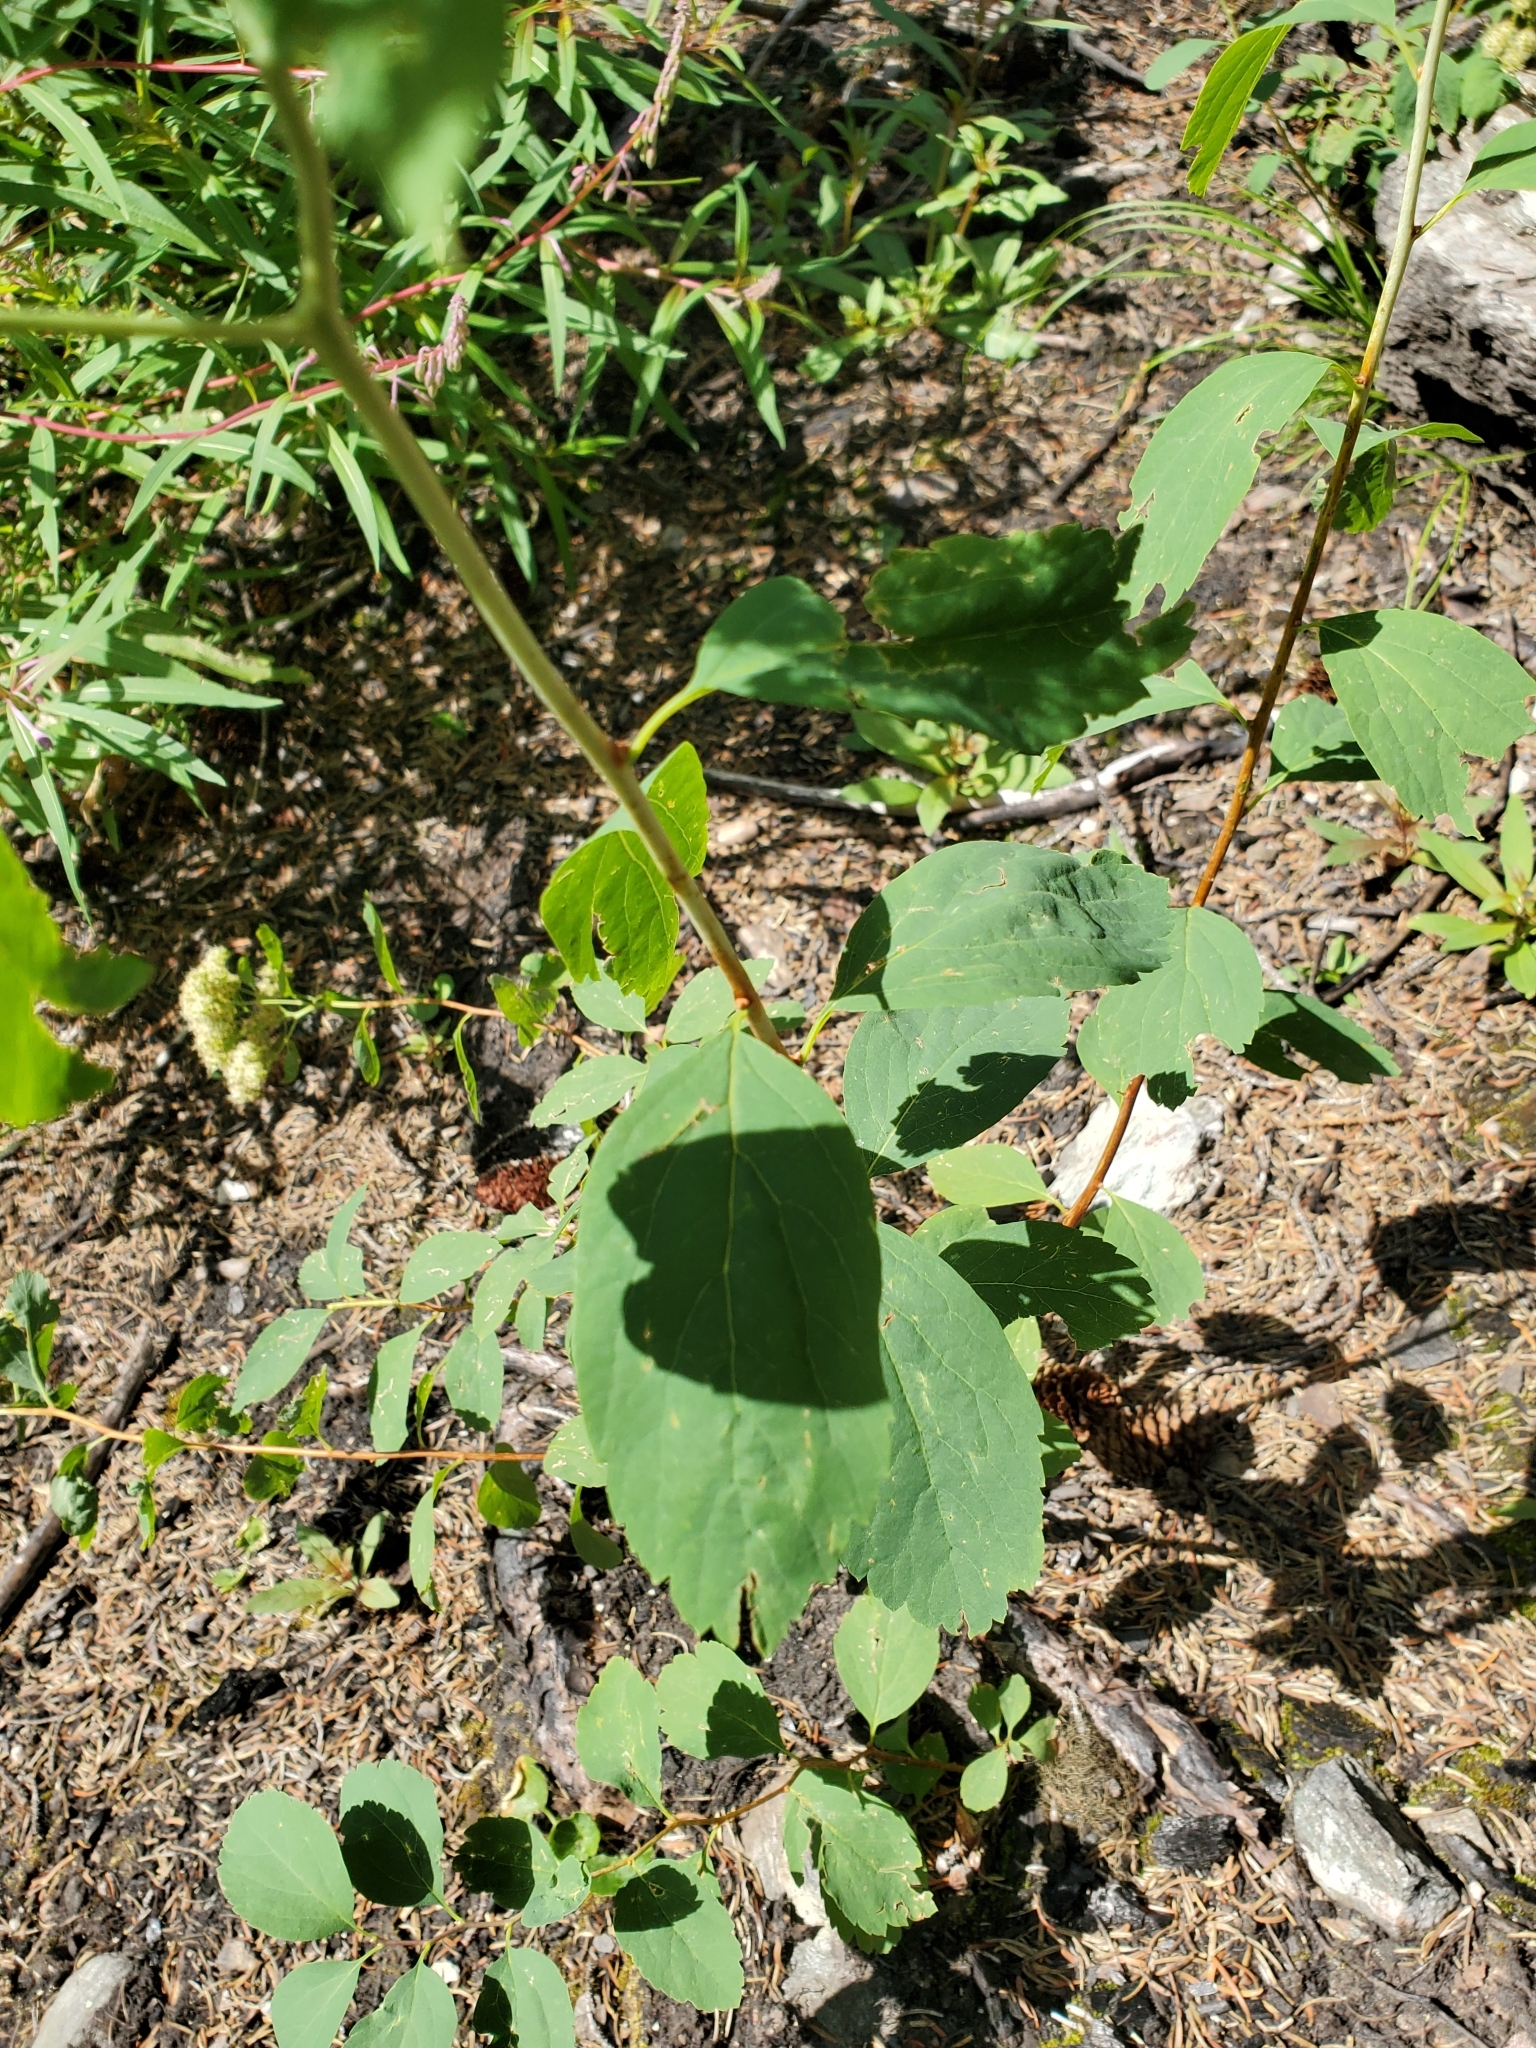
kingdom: Plantae
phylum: Tracheophyta
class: Magnoliopsida
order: Rosales
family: Rosaceae
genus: Spiraea
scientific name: Spiraea lucida
